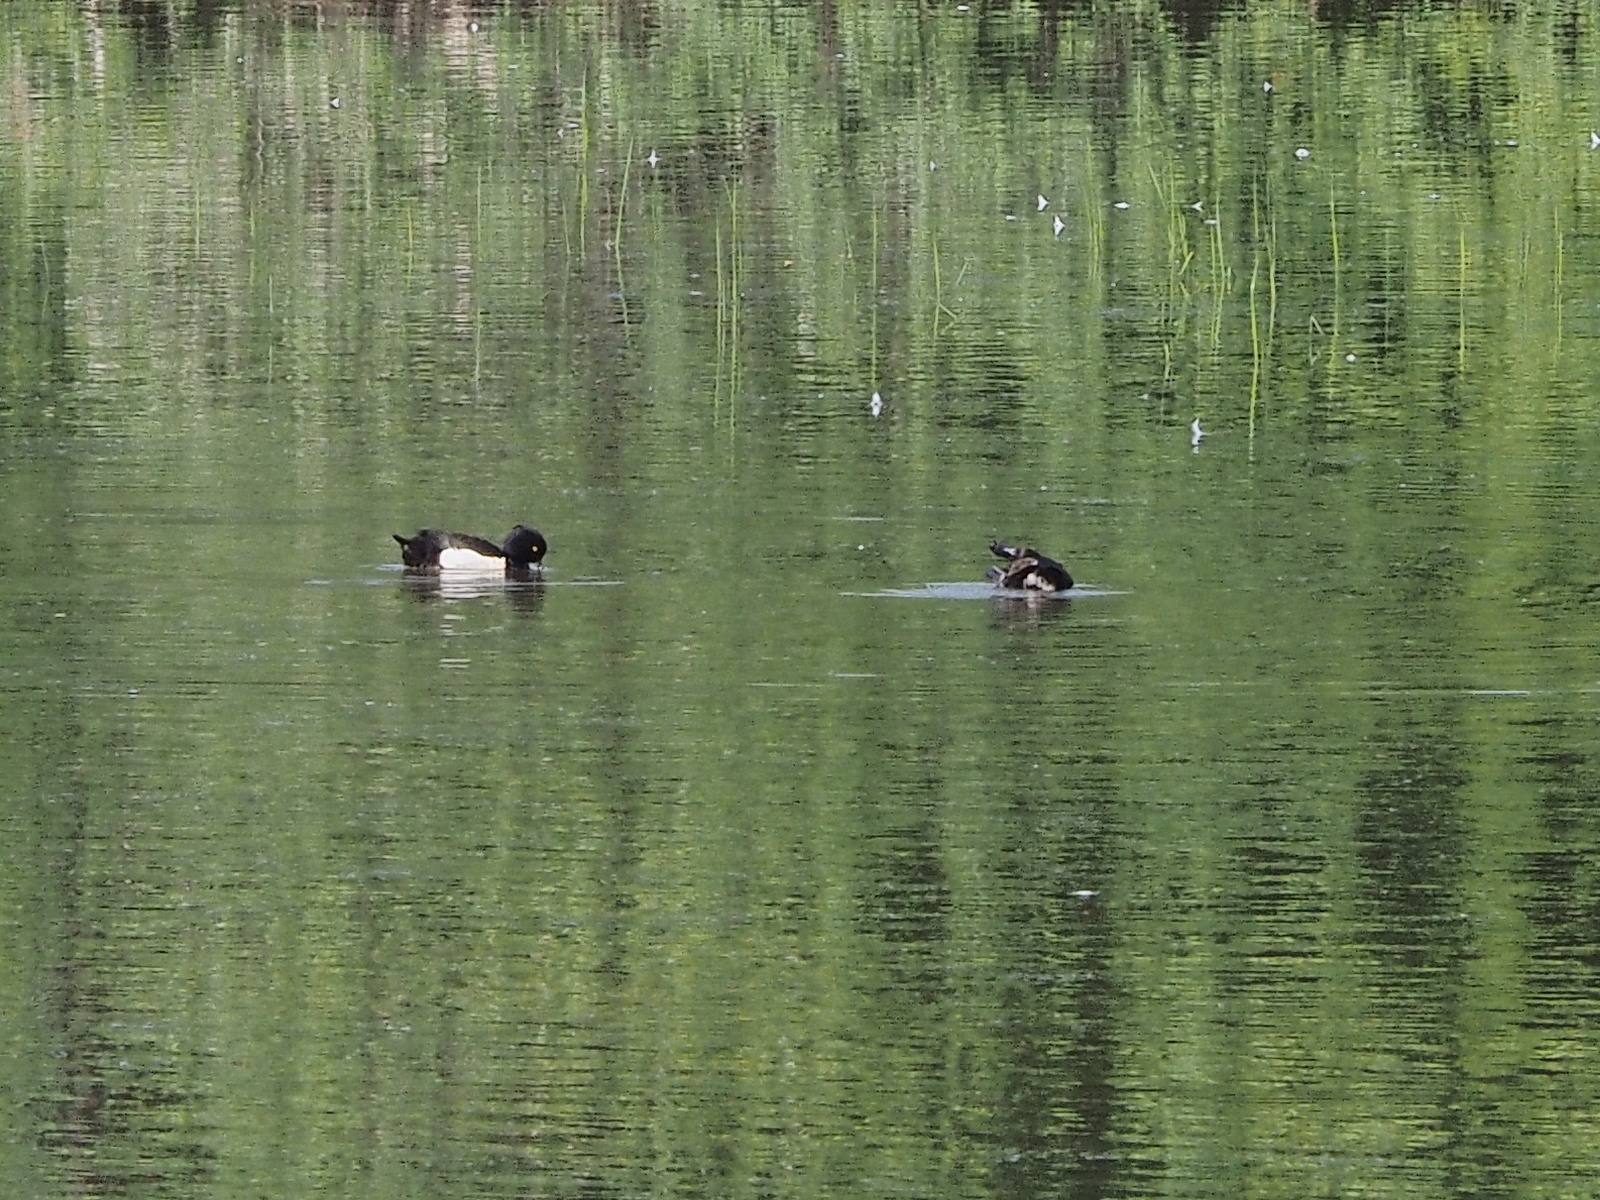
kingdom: Animalia
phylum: Chordata
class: Aves
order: Anseriformes
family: Anatidae
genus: Aythya
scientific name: Aythya fuligula
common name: Tufted duck
